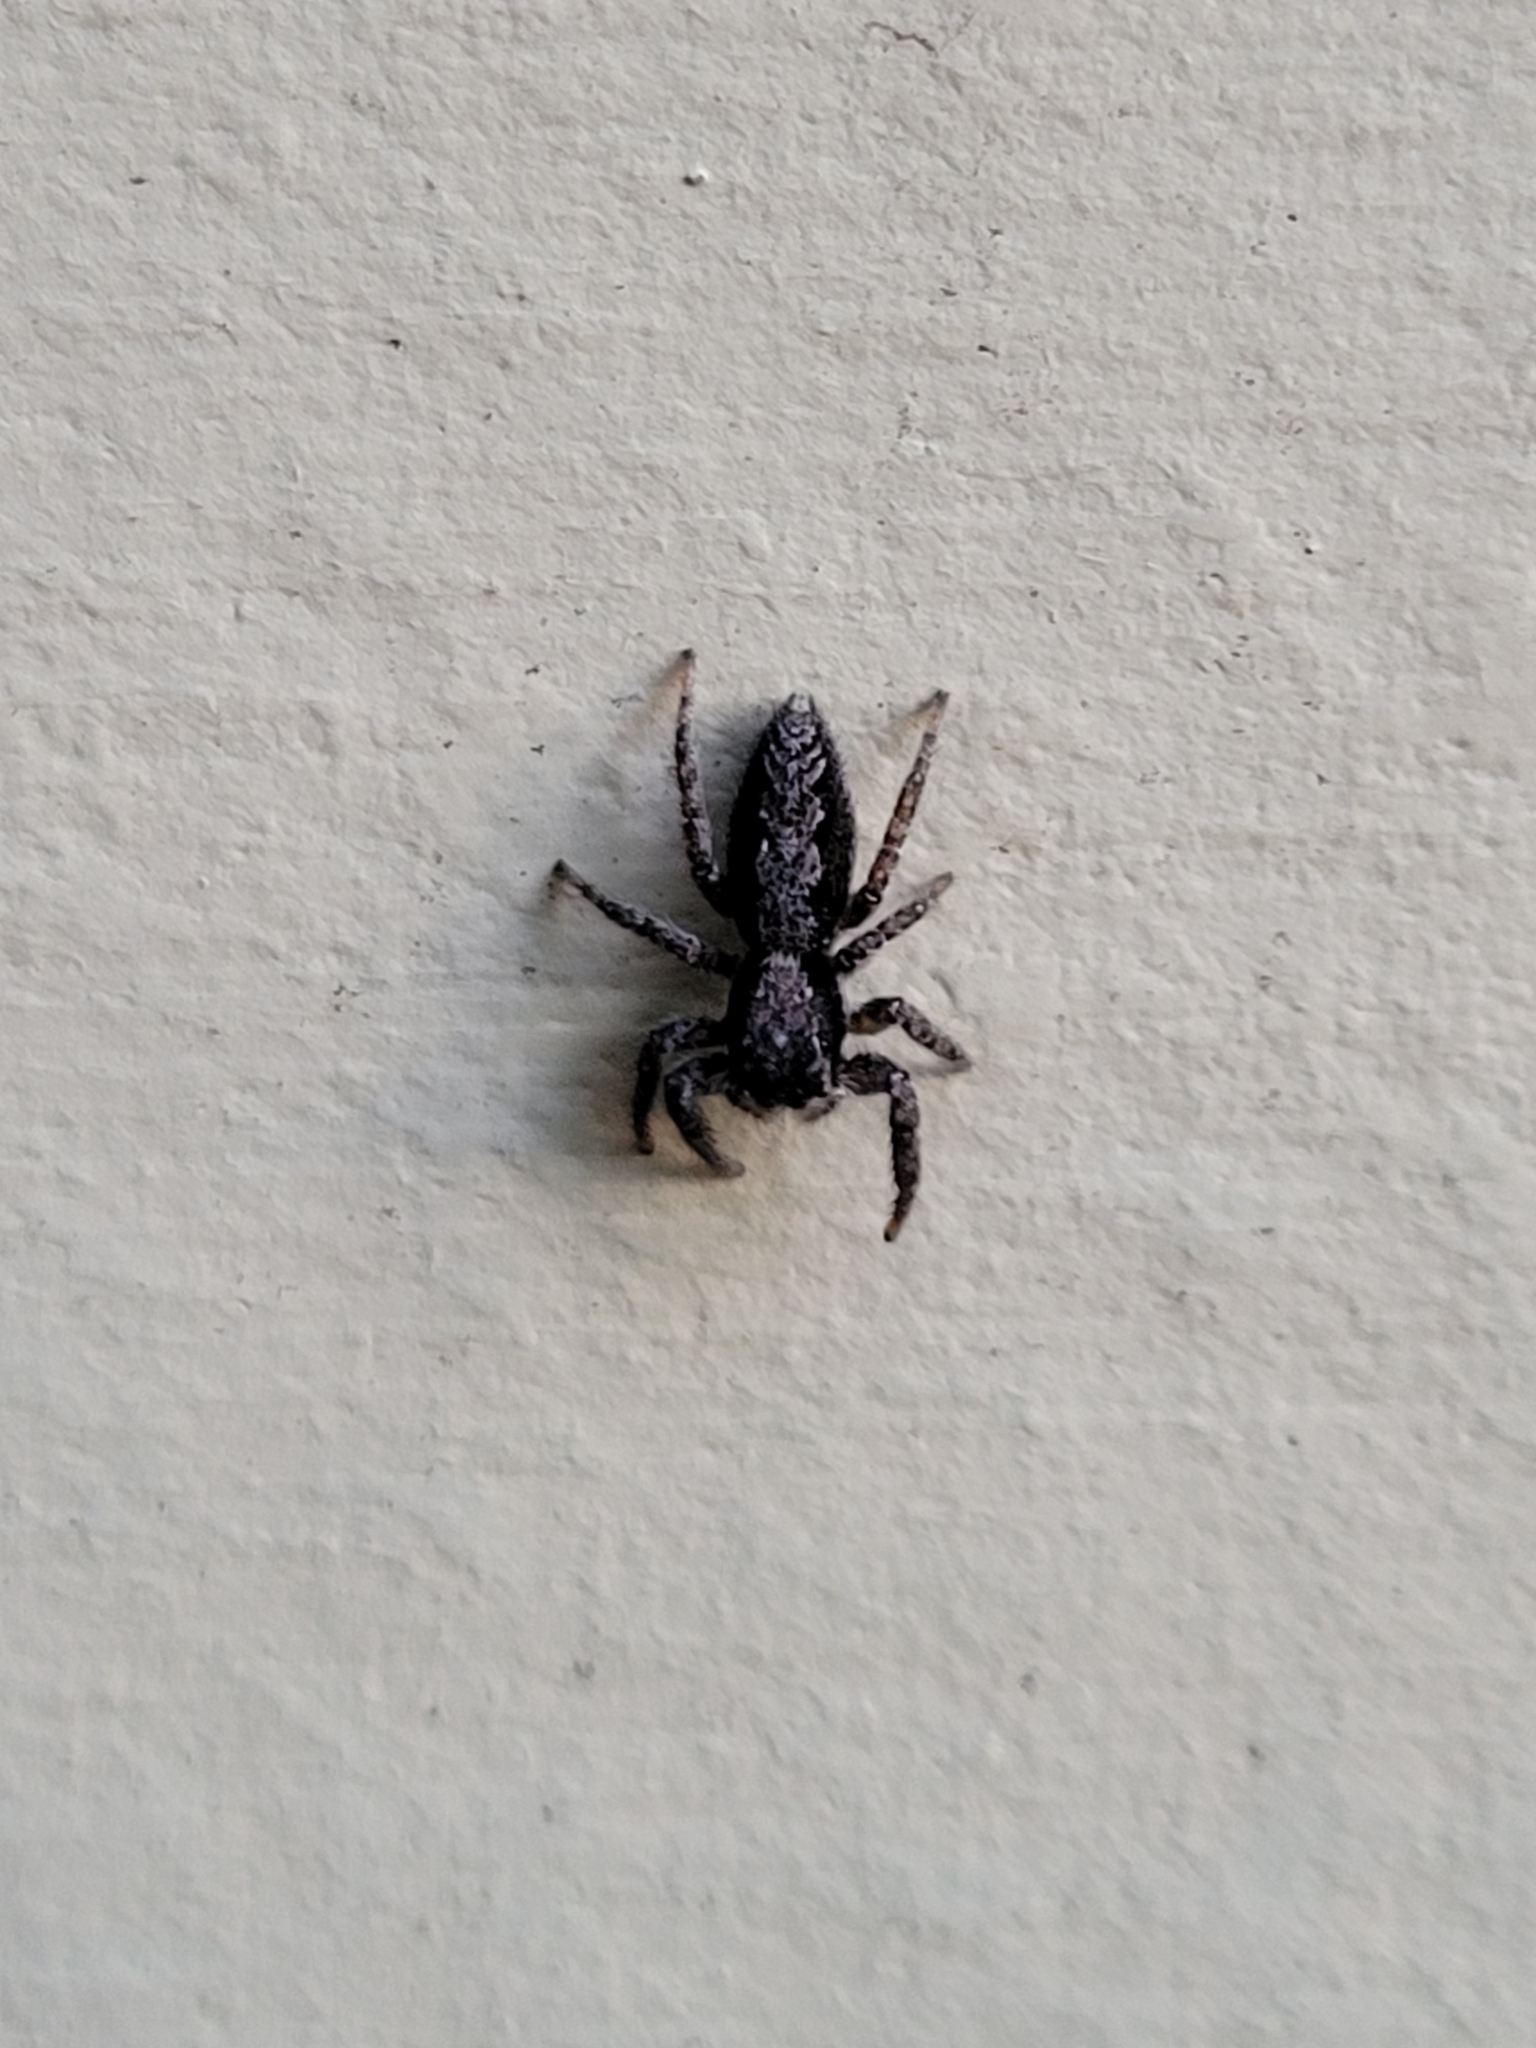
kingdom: Animalia
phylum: Arthropoda
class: Arachnida
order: Araneae
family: Salticidae
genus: Platycryptus
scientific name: Platycryptus californicus
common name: Jumping spiders
